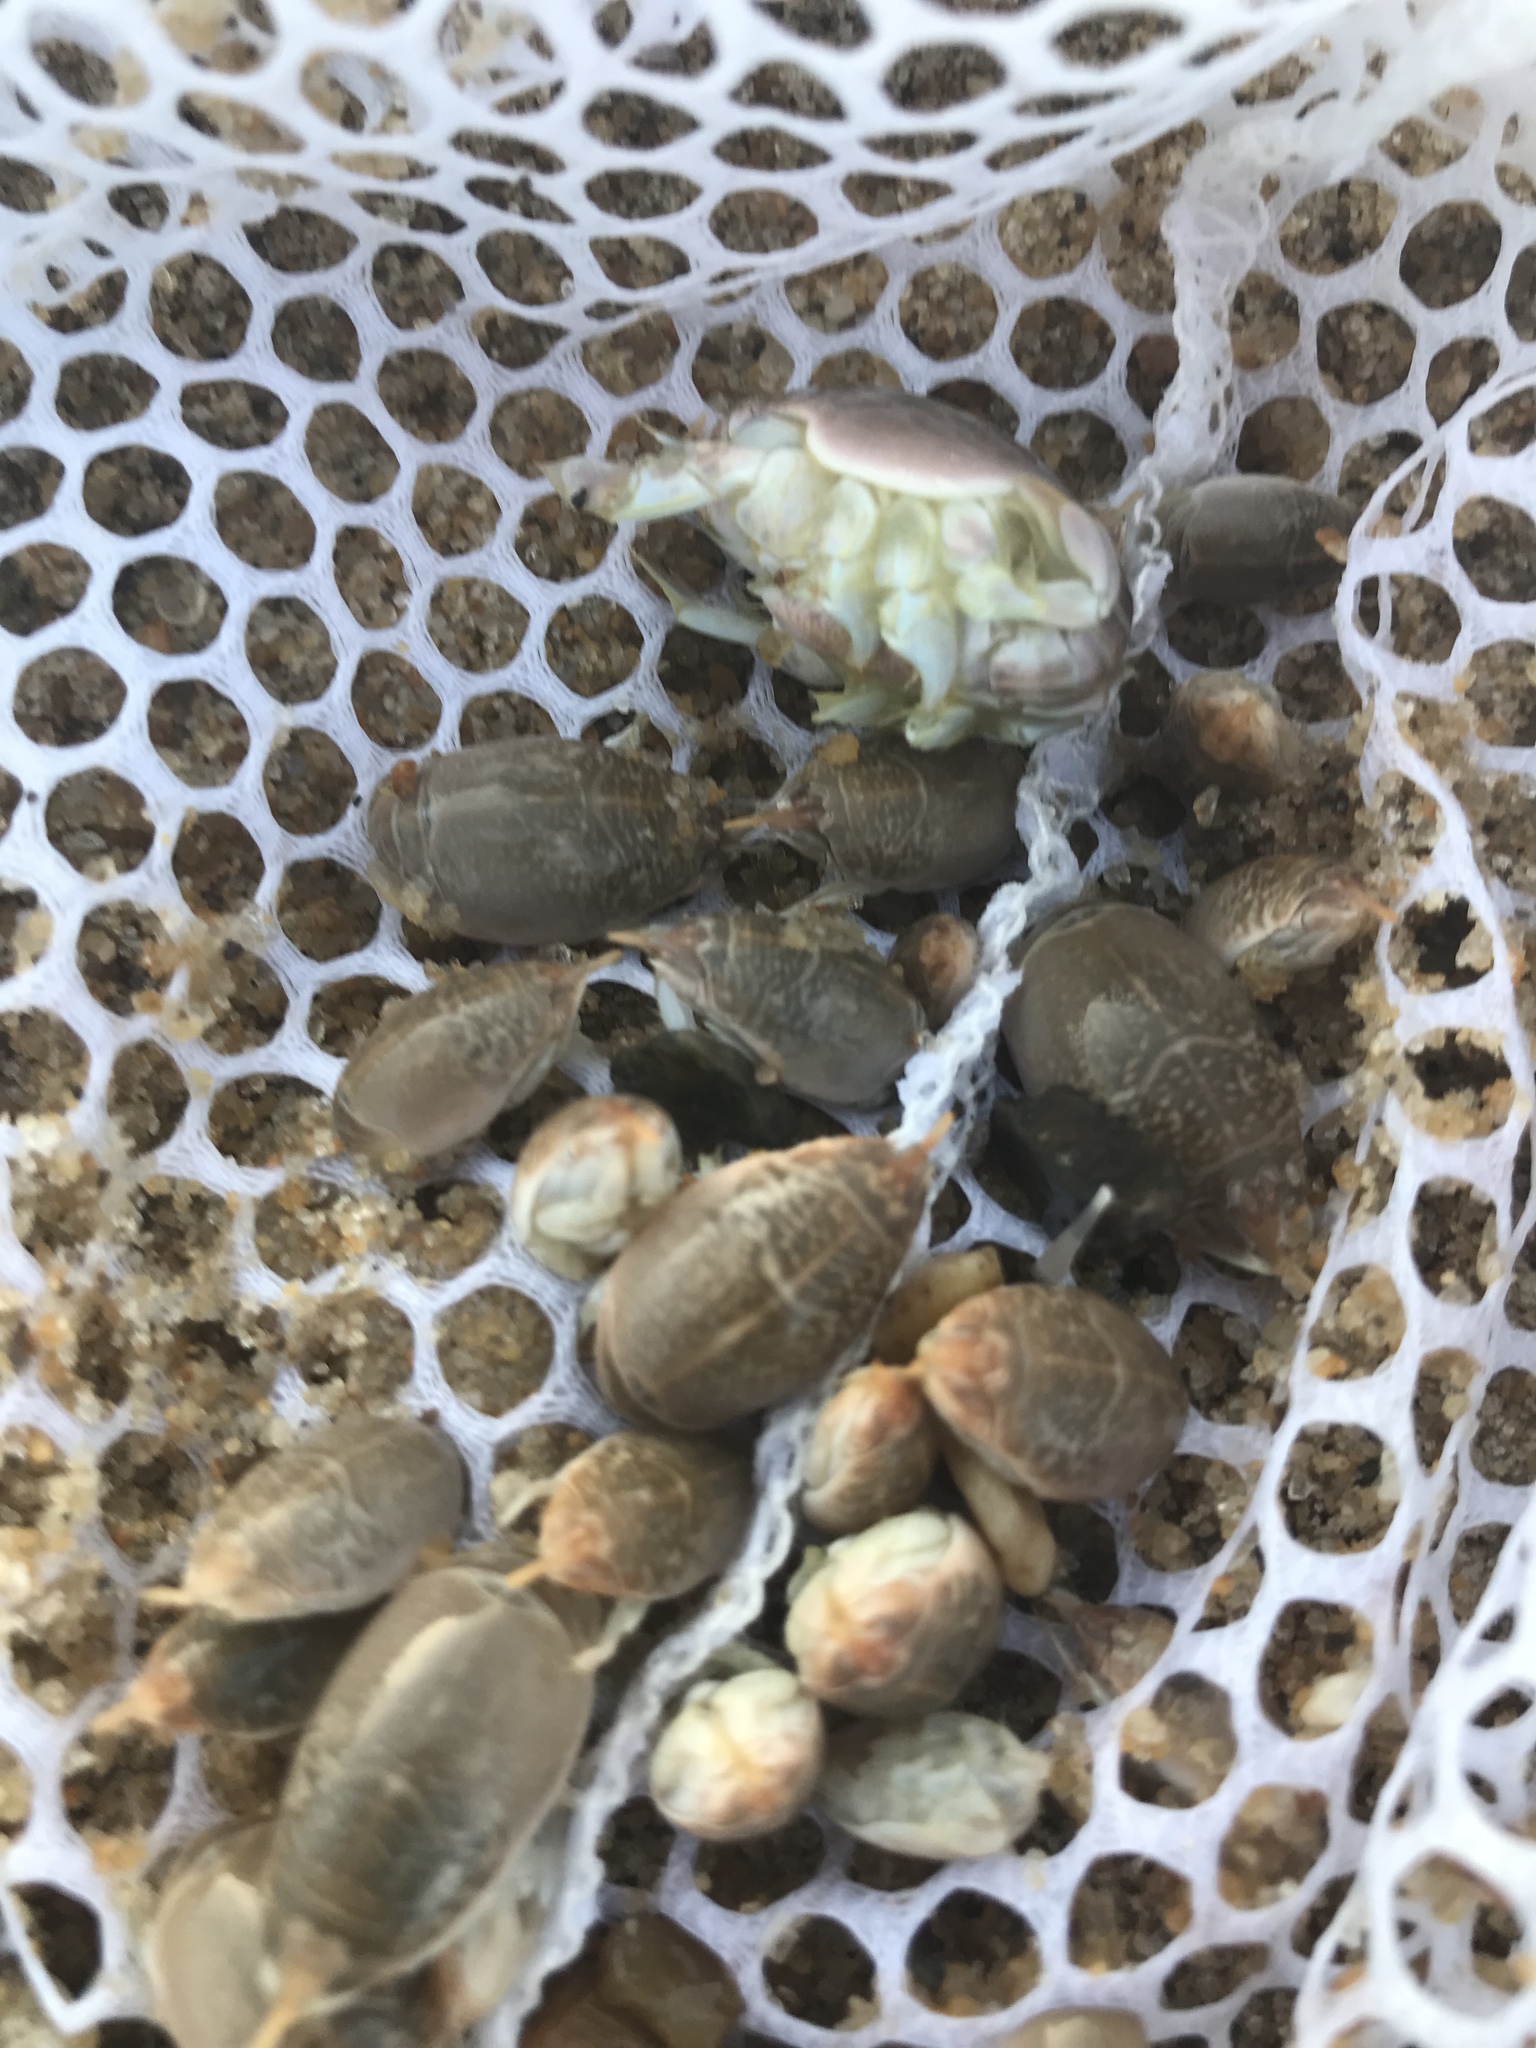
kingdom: Animalia
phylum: Arthropoda
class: Malacostraca
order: Decapoda
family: Hippidae
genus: Emerita
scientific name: Emerita talpoida
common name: Atlantic sand crab
